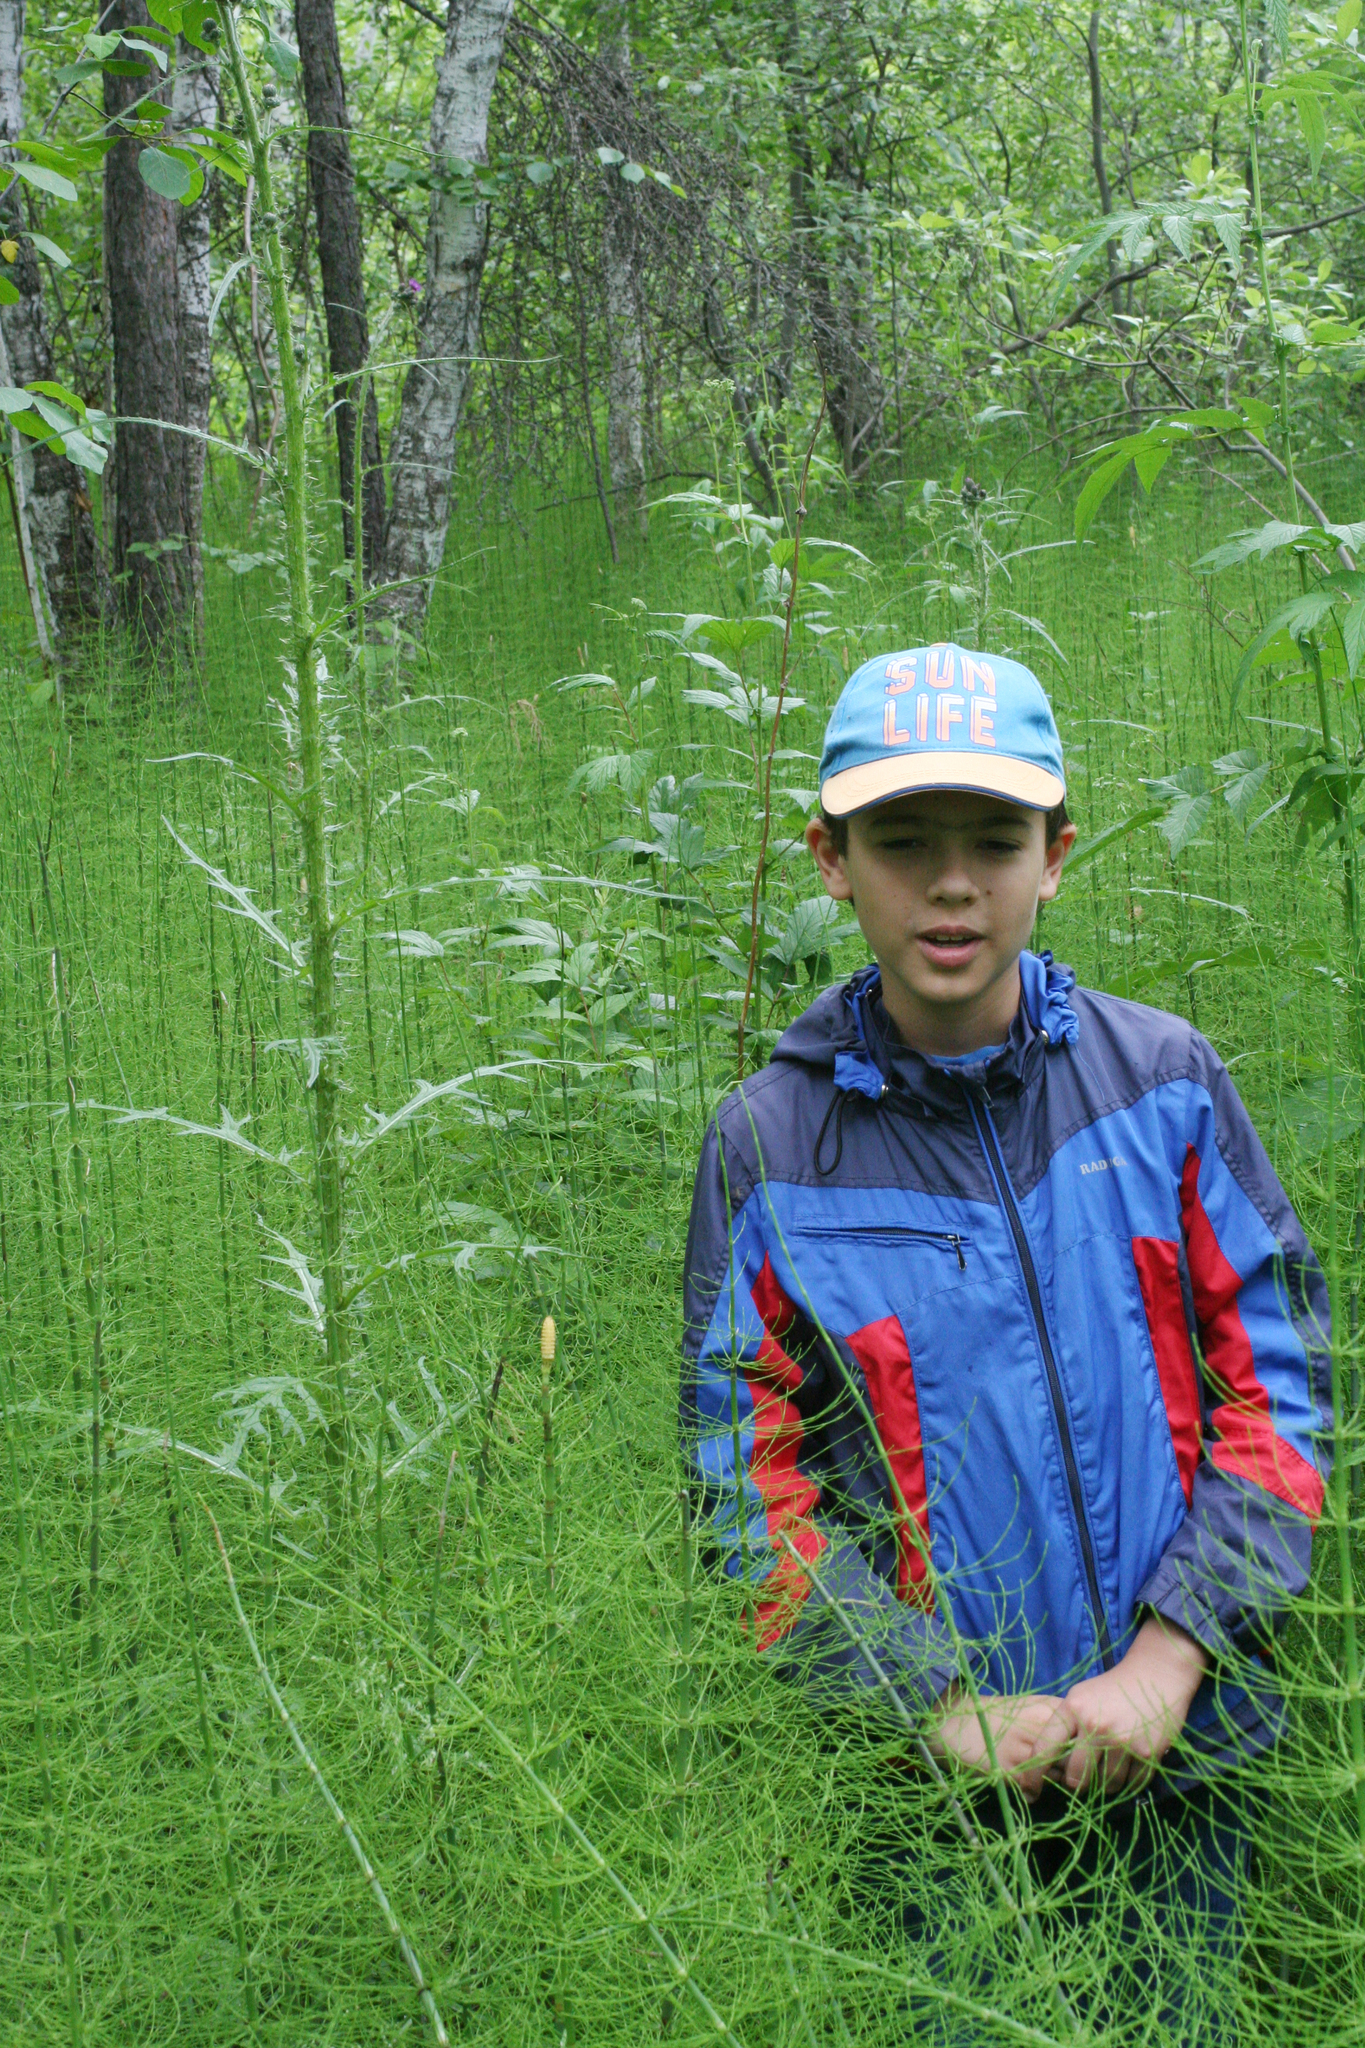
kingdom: Plantae
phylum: Tracheophyta
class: Magnoliopsida
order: Asterales
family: Asteraceae
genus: Cirsium
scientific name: Cirsium palustre
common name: Marsh thistle
